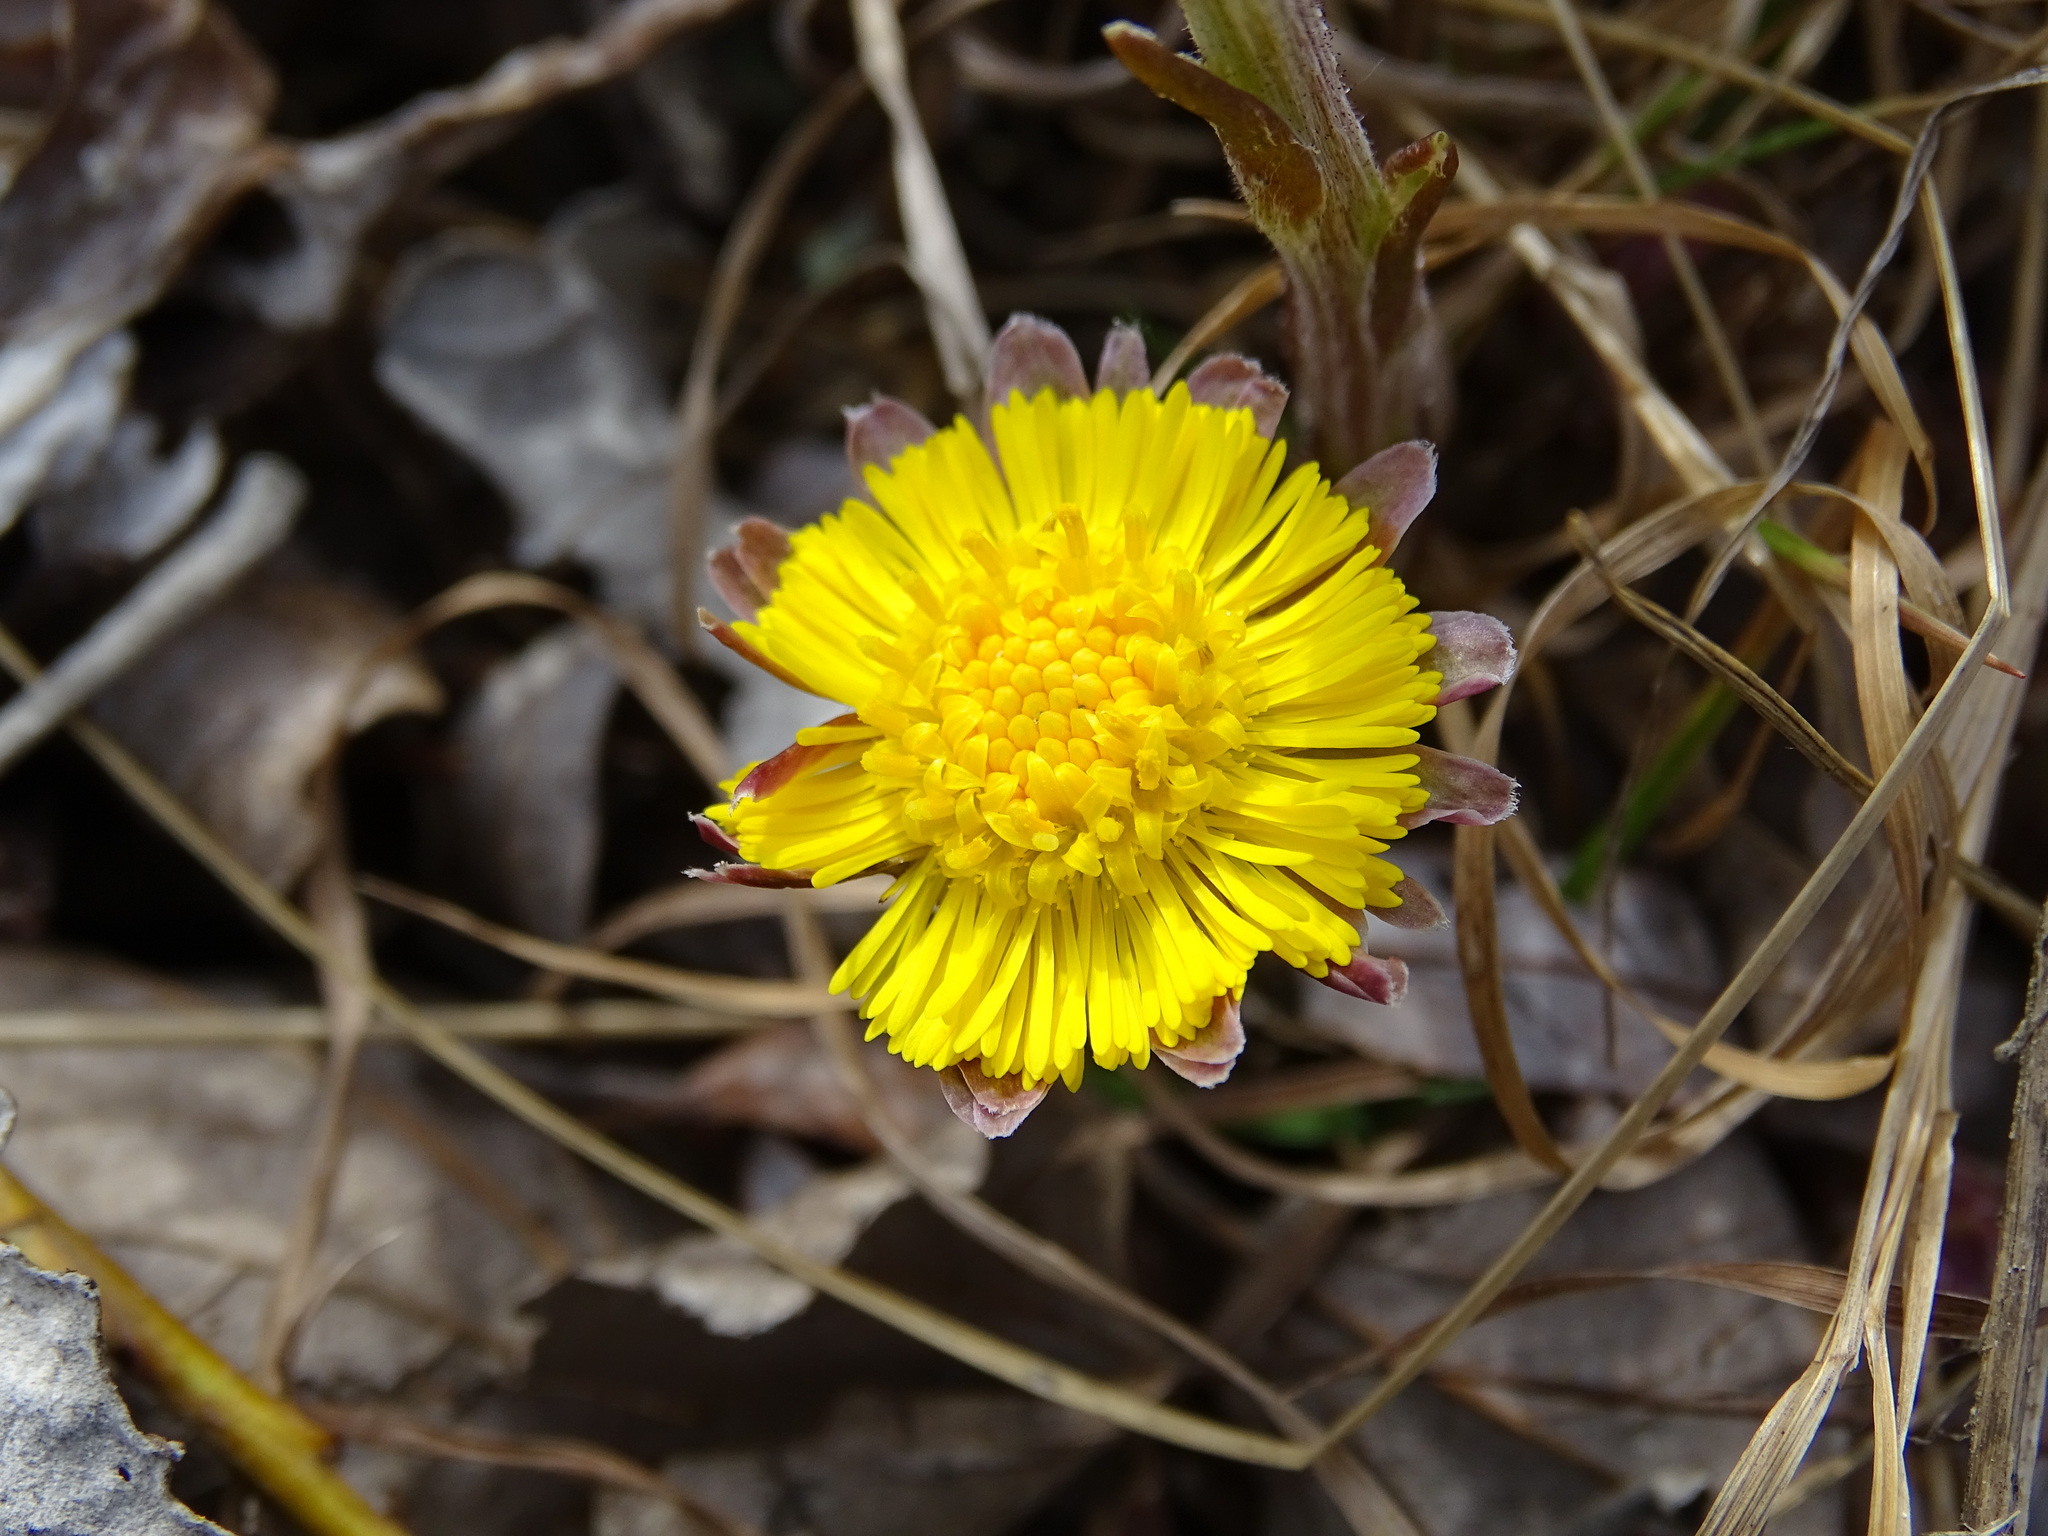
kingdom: Plantae
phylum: Tracheophyta
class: Magnoliopsida
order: Asterales
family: Asteraceae
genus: Tussilago
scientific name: Tussilago farfara
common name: Coltsfoot
